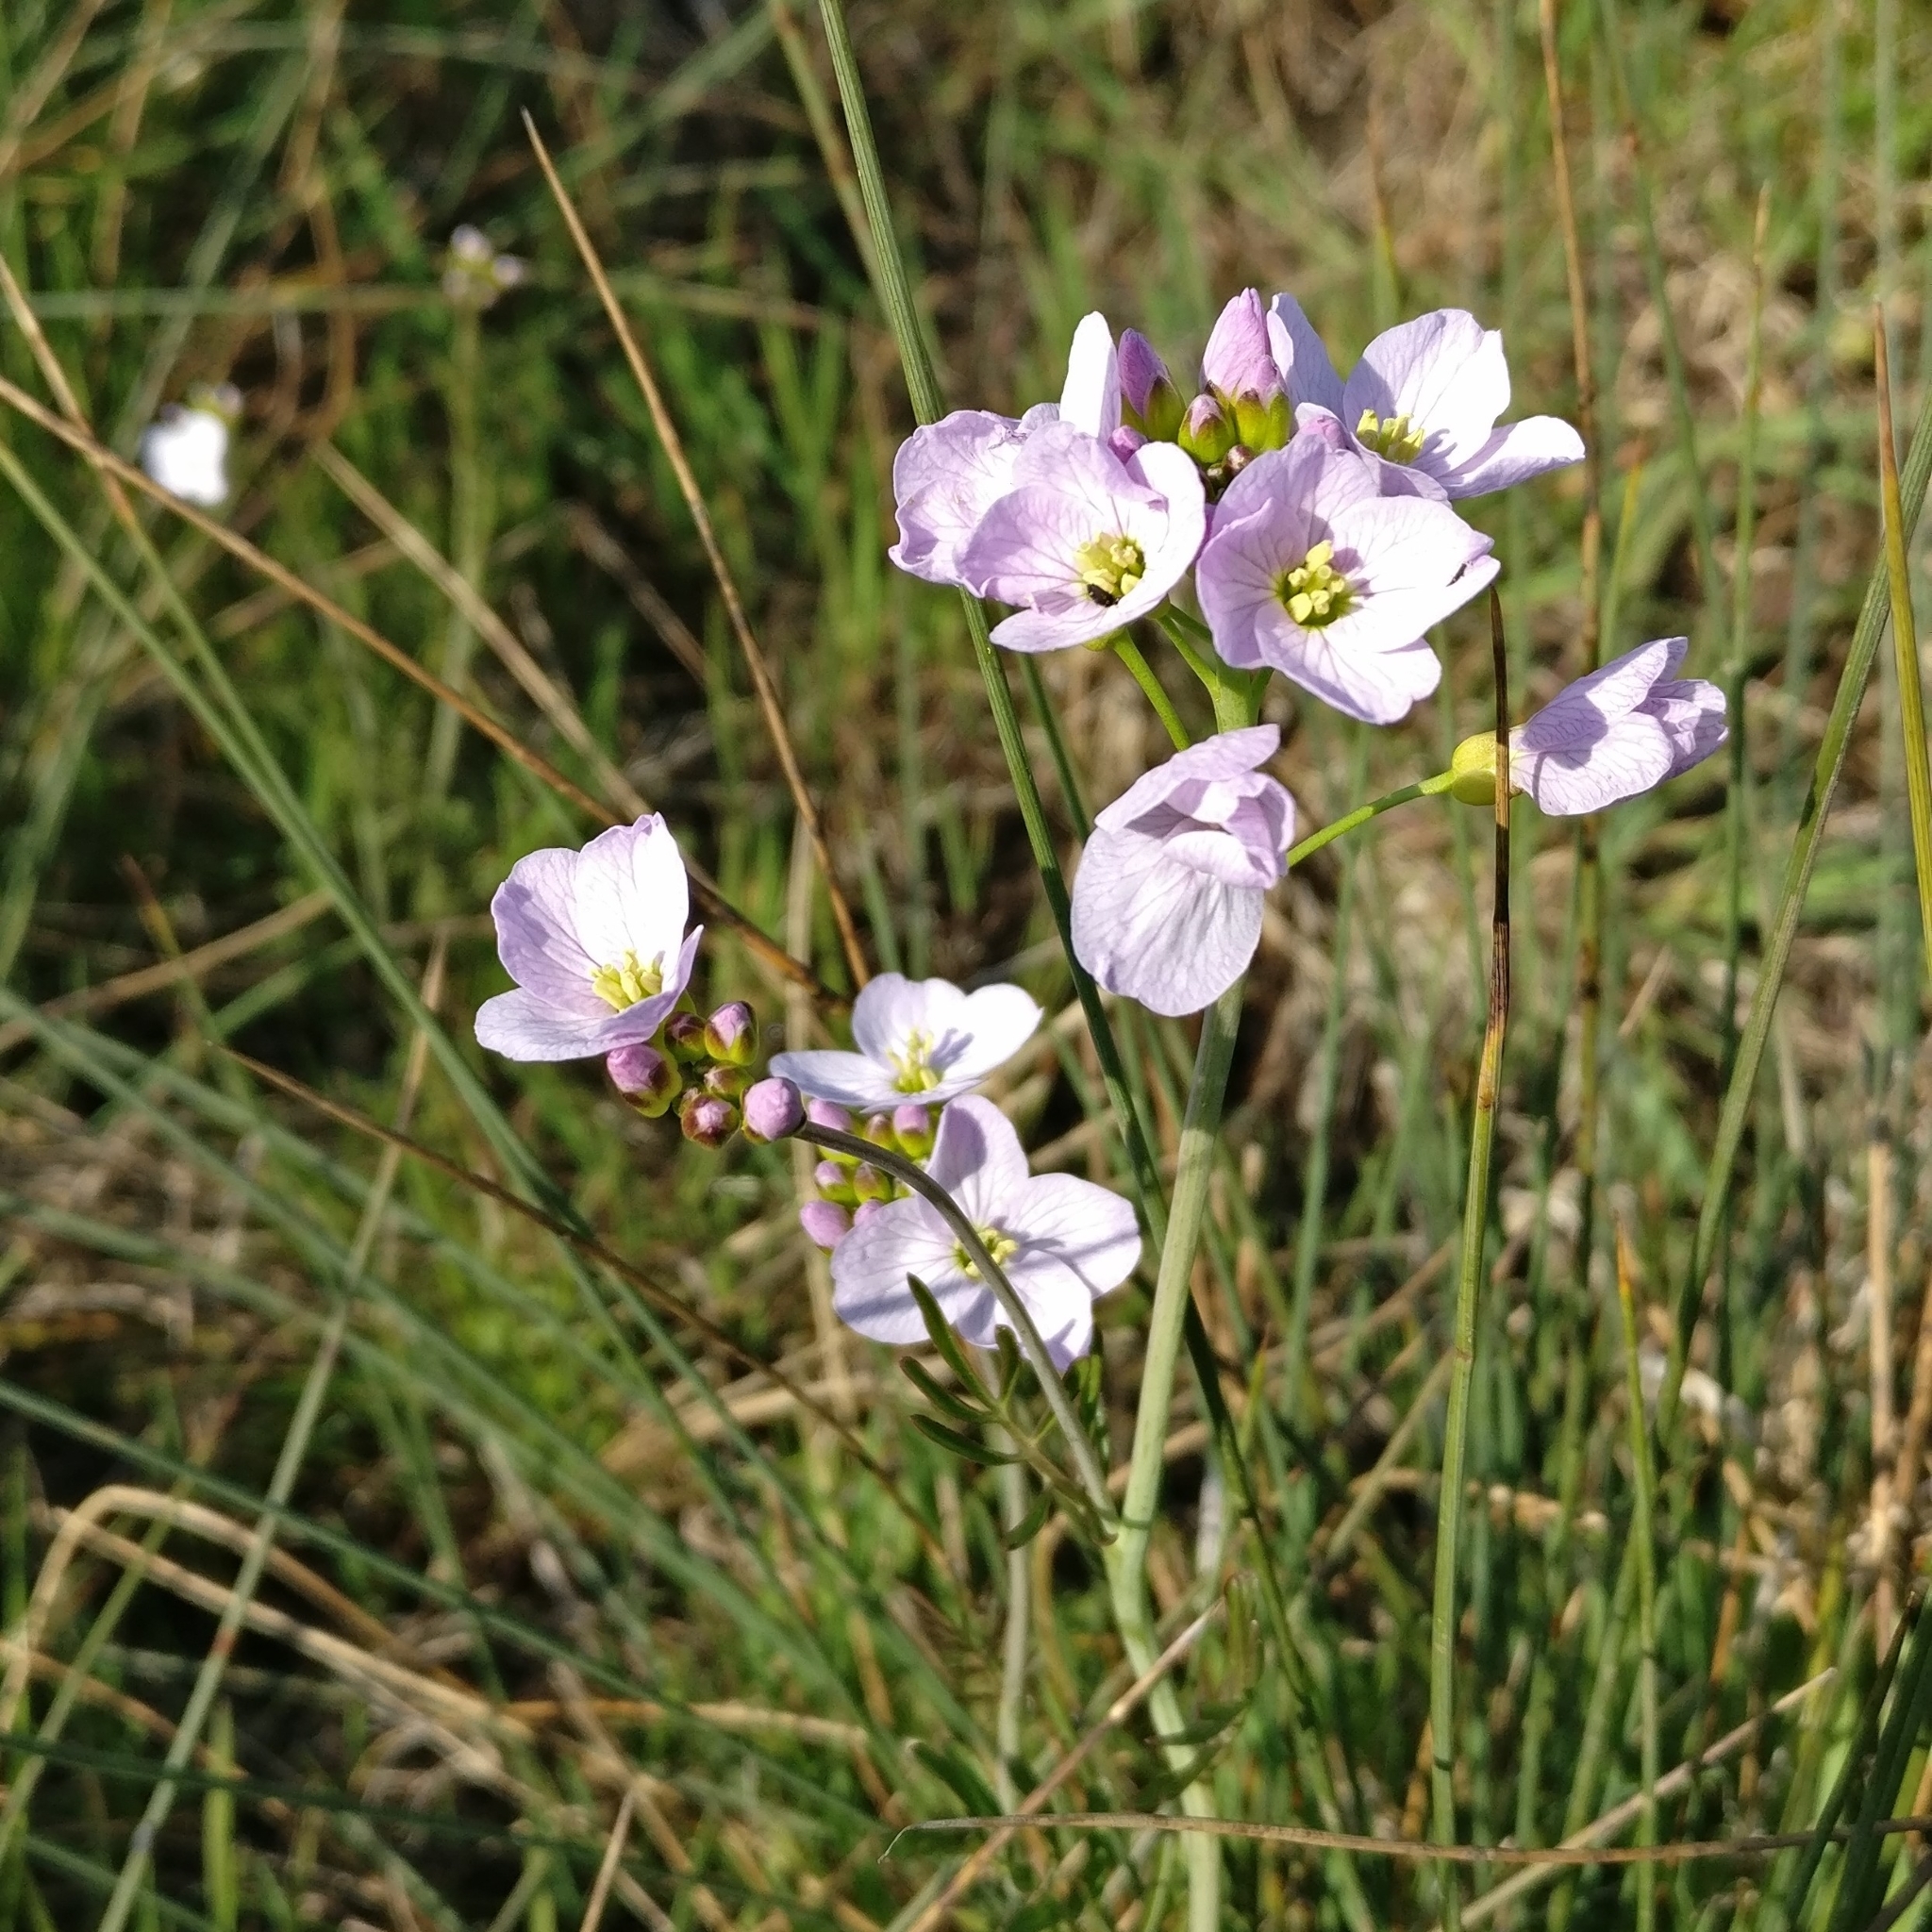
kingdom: Plantae
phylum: Tracheophyta
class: Magnoliopsida
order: Brassicales
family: Brassicaceae
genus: Cardamine
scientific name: Cardamine pratensis
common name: Cuckoo flower
